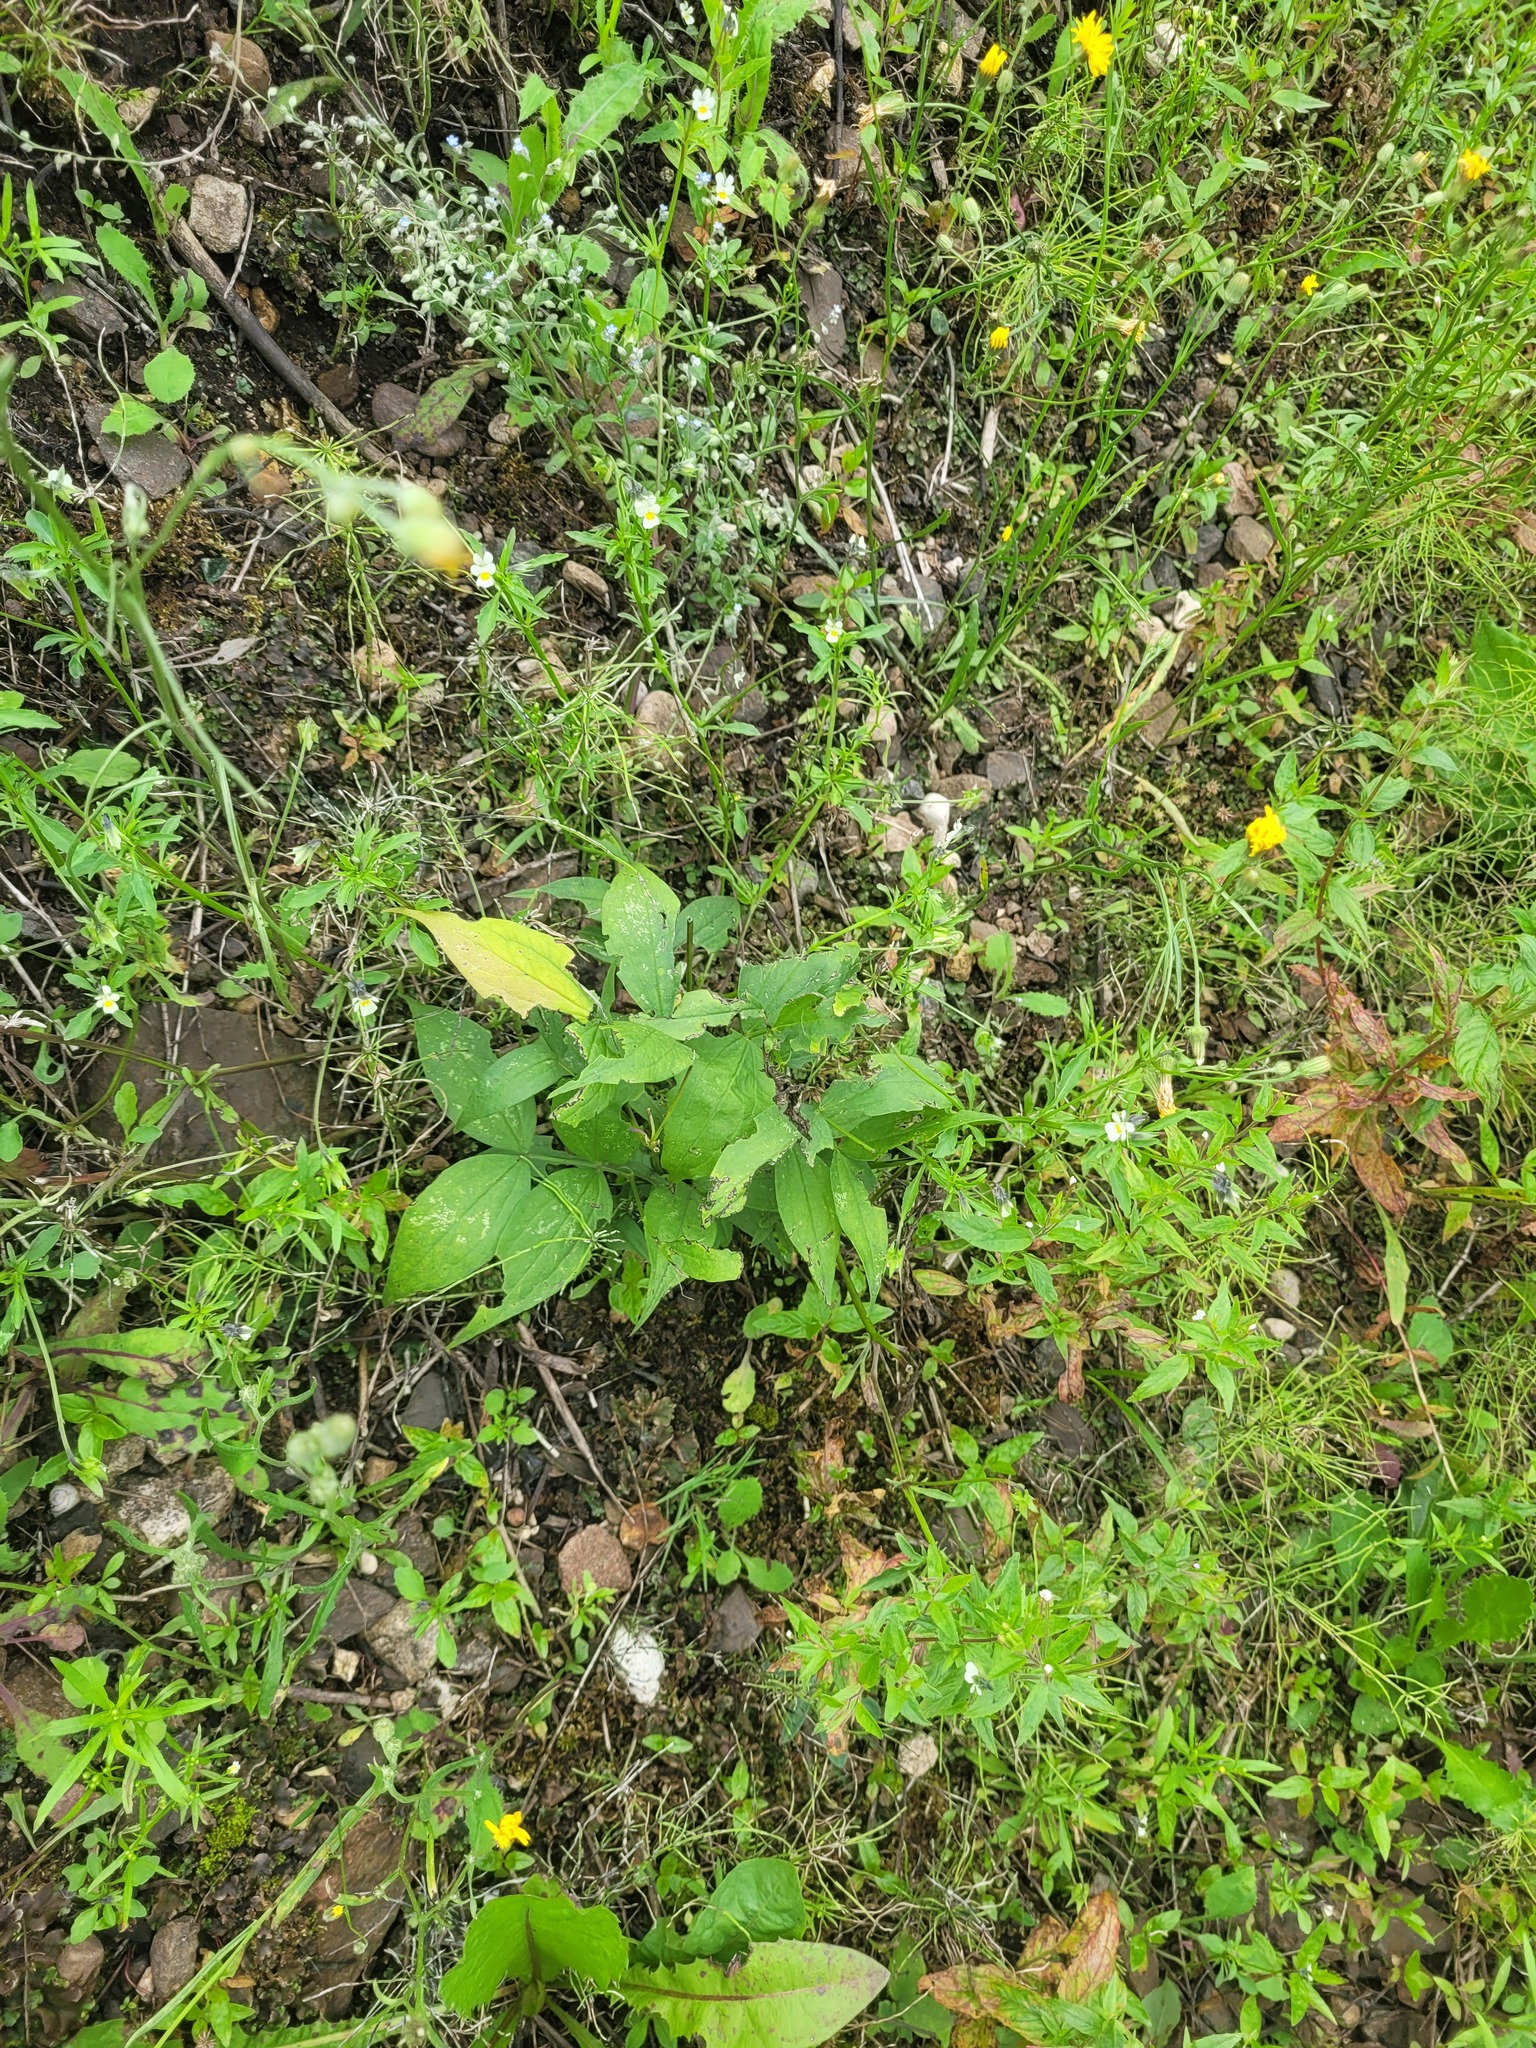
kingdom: Plantae
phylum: Tracheophyta
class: Magnoliopsida
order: Fabales
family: Fabaceae
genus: Lathyrus
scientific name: Lathyrus vernus
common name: Spring pea
